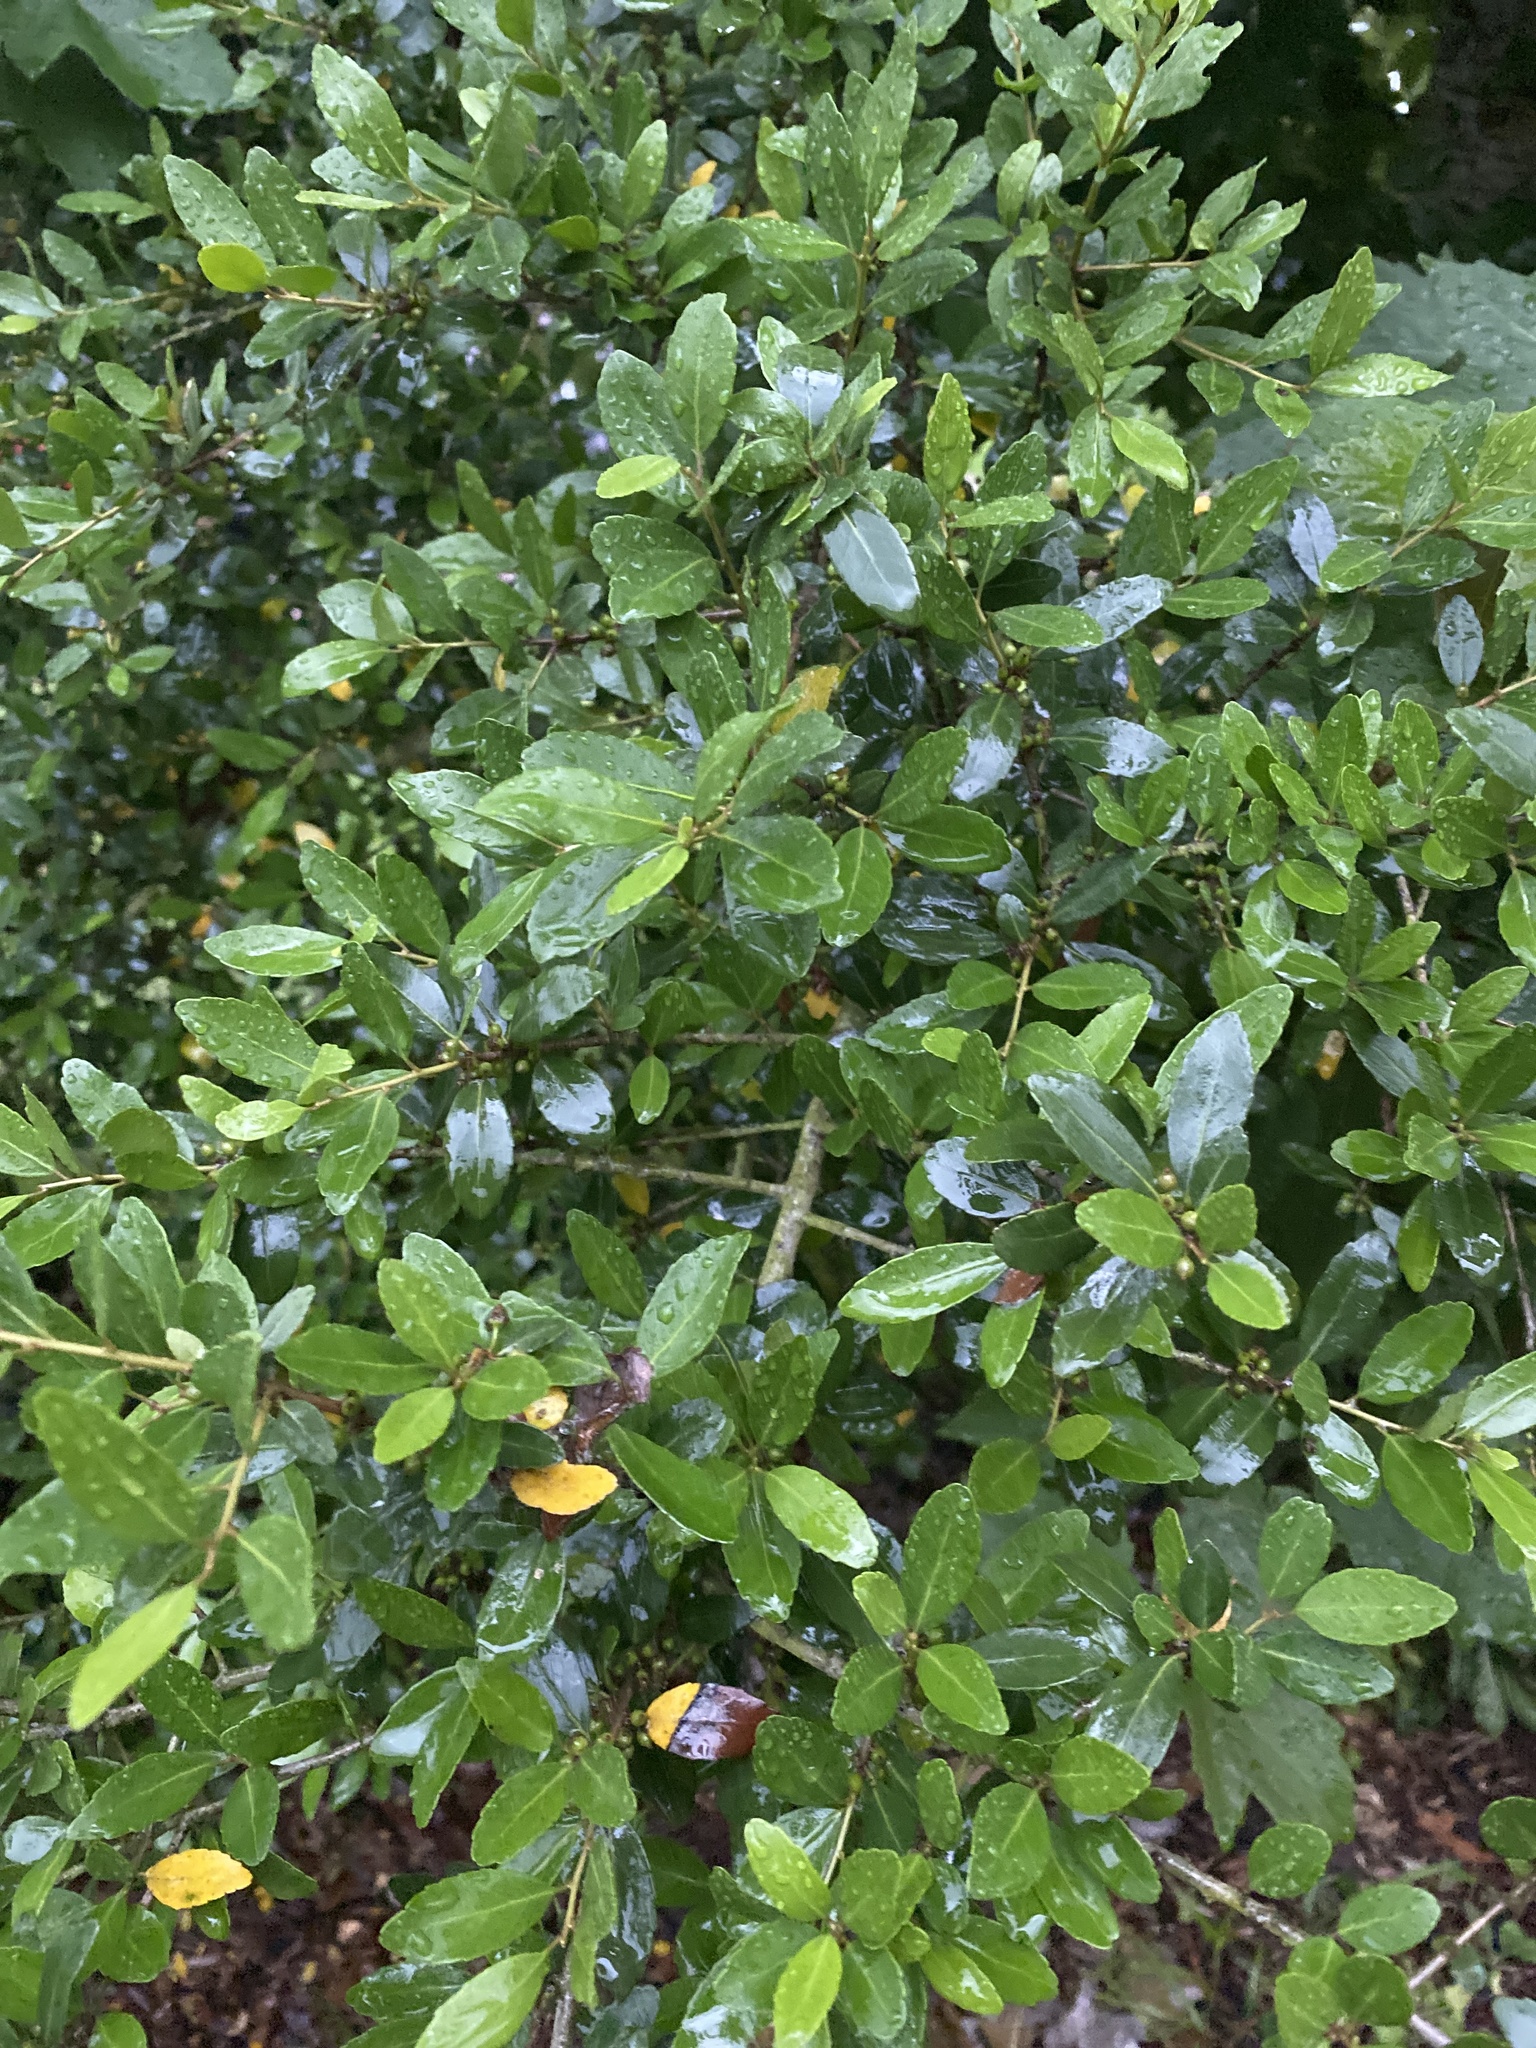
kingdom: Plantae
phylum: Tracheophyta
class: Magnoliopsida
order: Aquifoliales
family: Aquifoliaceae
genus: Ilex
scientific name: Ilex vomitoria
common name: Yaupon holly
